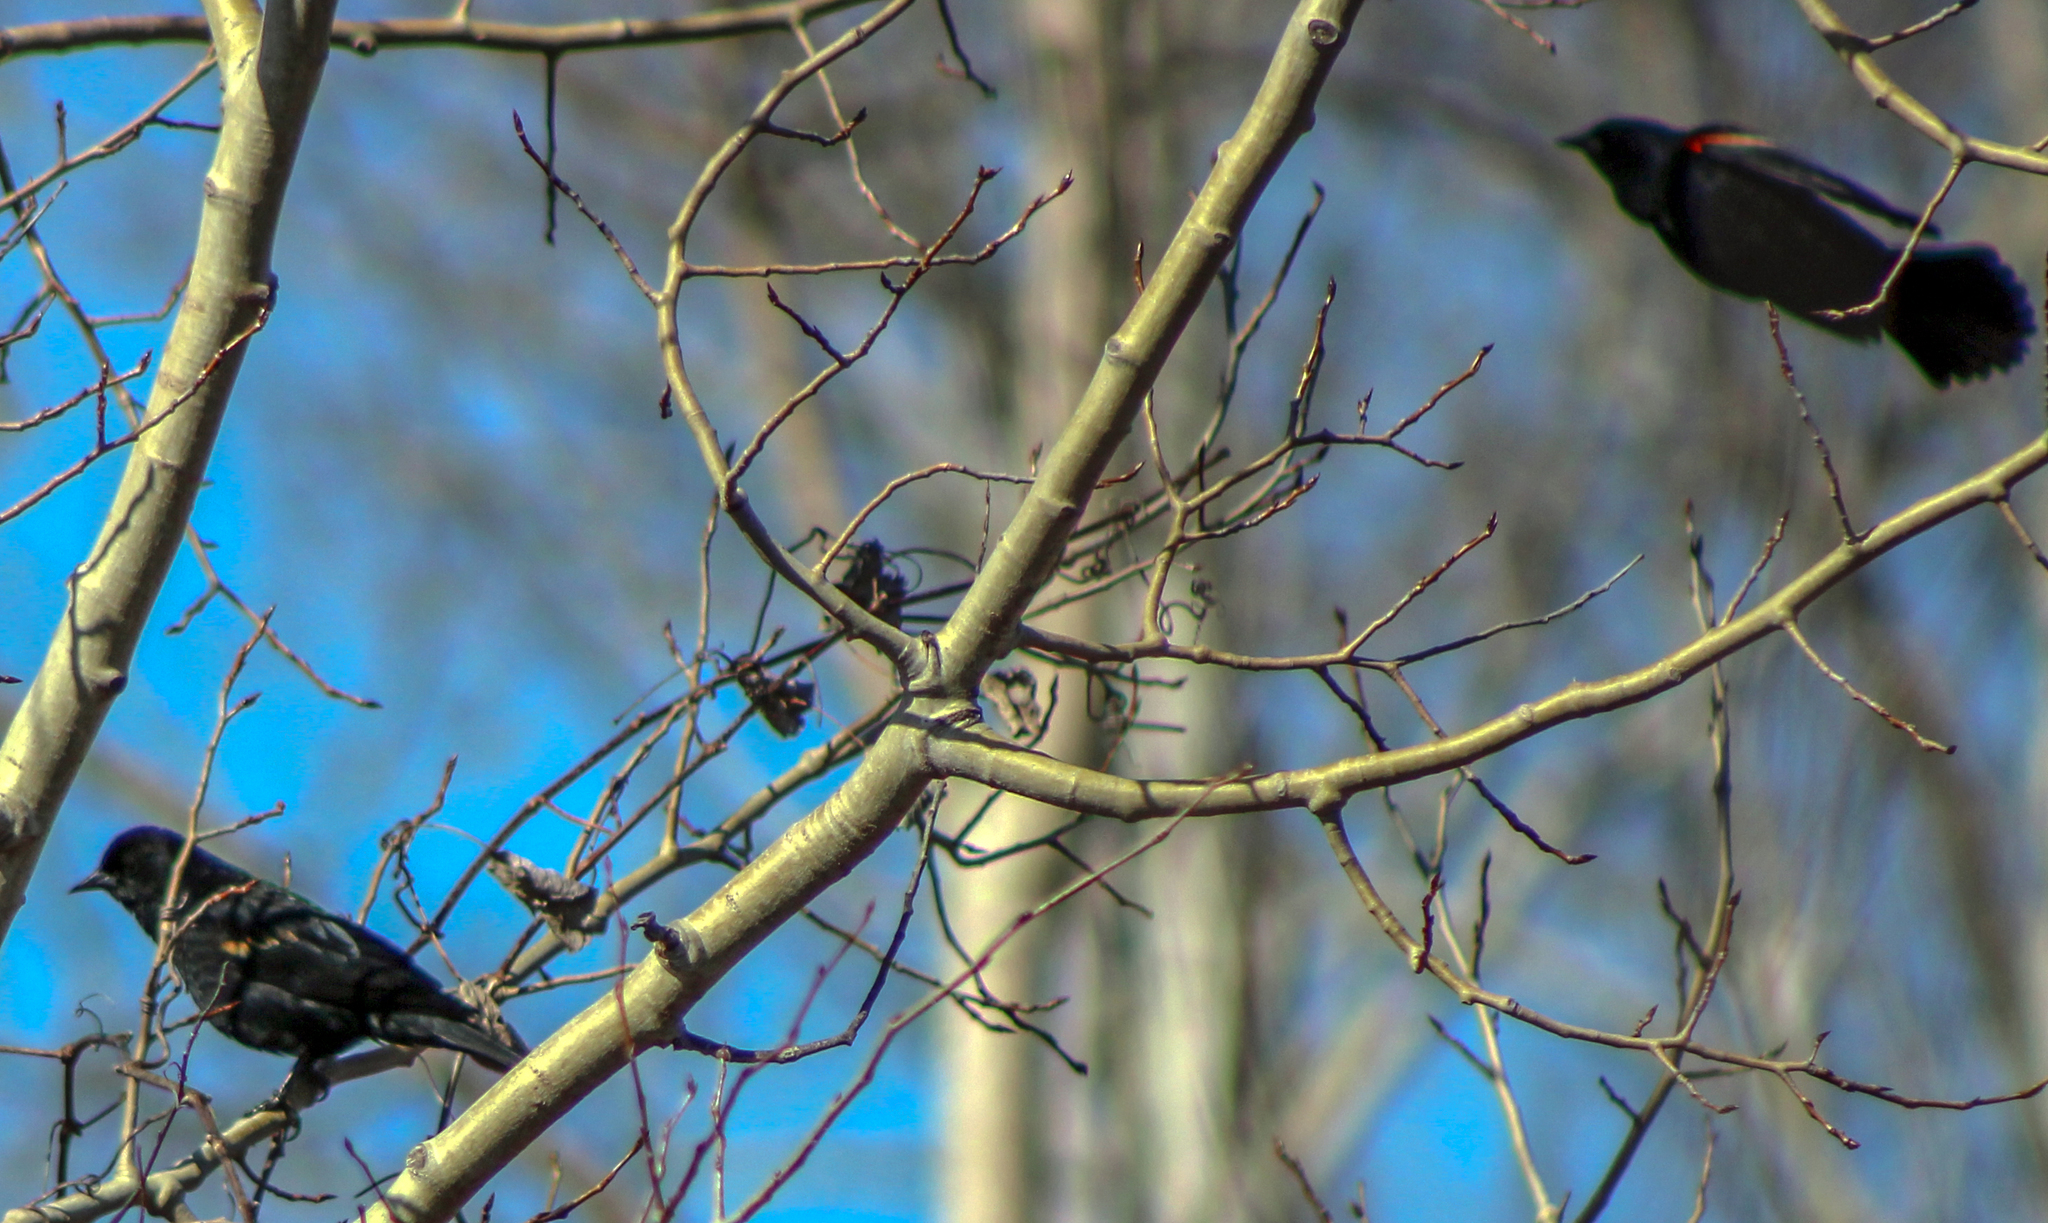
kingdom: Animalia
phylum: Chordata
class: Aves
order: Passeriformes
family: Icteridae
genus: Agelaius
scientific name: Agelaius phoeniceus
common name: Red-winged blackbird
